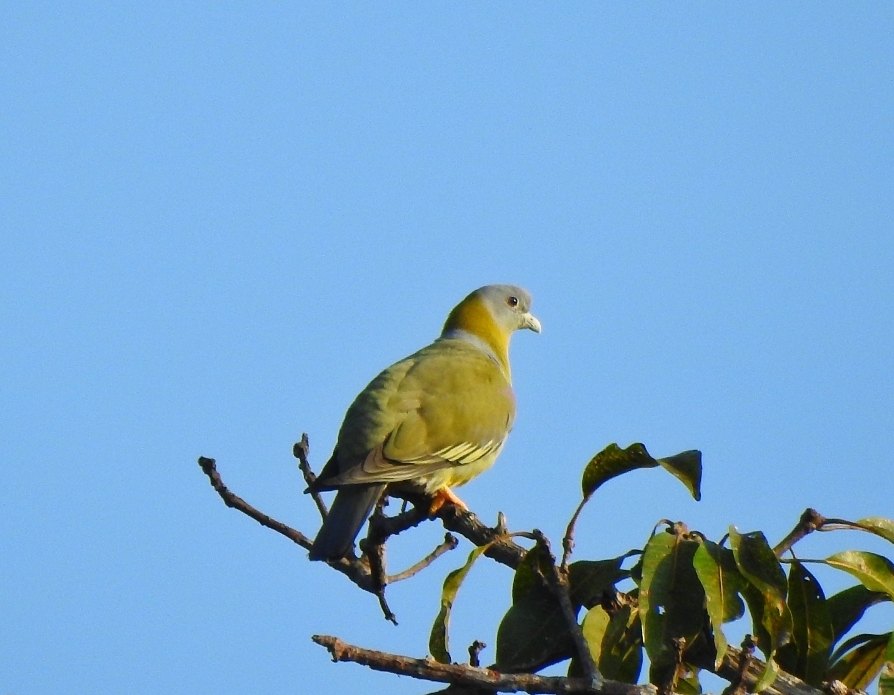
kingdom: Animalia
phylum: Chordata
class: Aves
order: Columbiformes
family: Columbidae
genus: Treron
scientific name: Treron phoenicopterus
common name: Yellow-footed green pigeon
